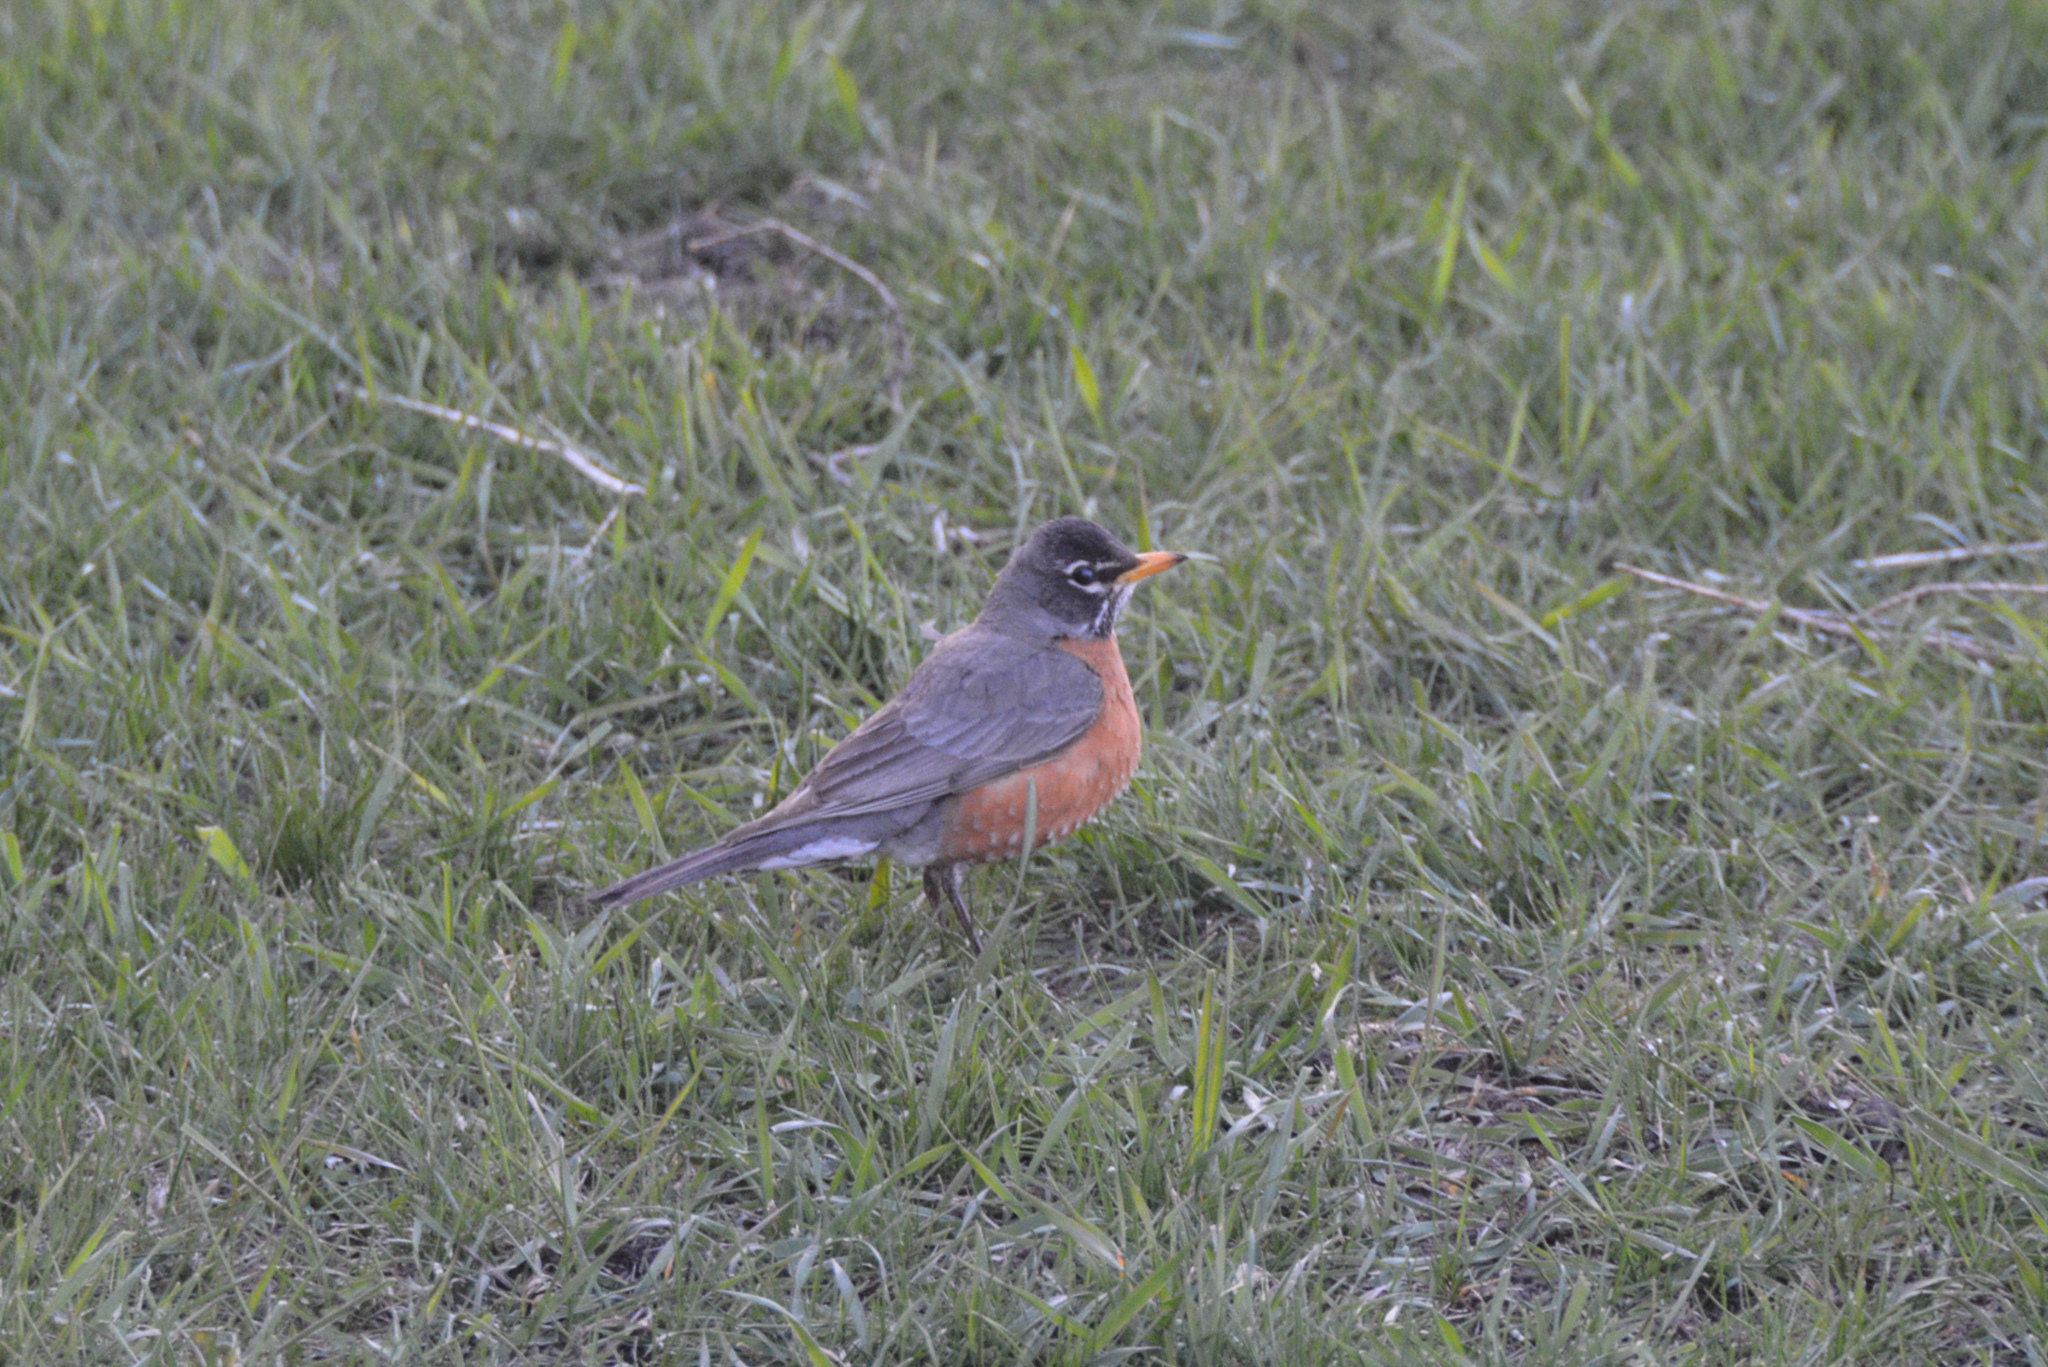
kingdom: Animalia
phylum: Chordata
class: Aves
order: Passeriformes
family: Turdidae
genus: Turdus
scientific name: Turdus migratorius
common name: American robin
